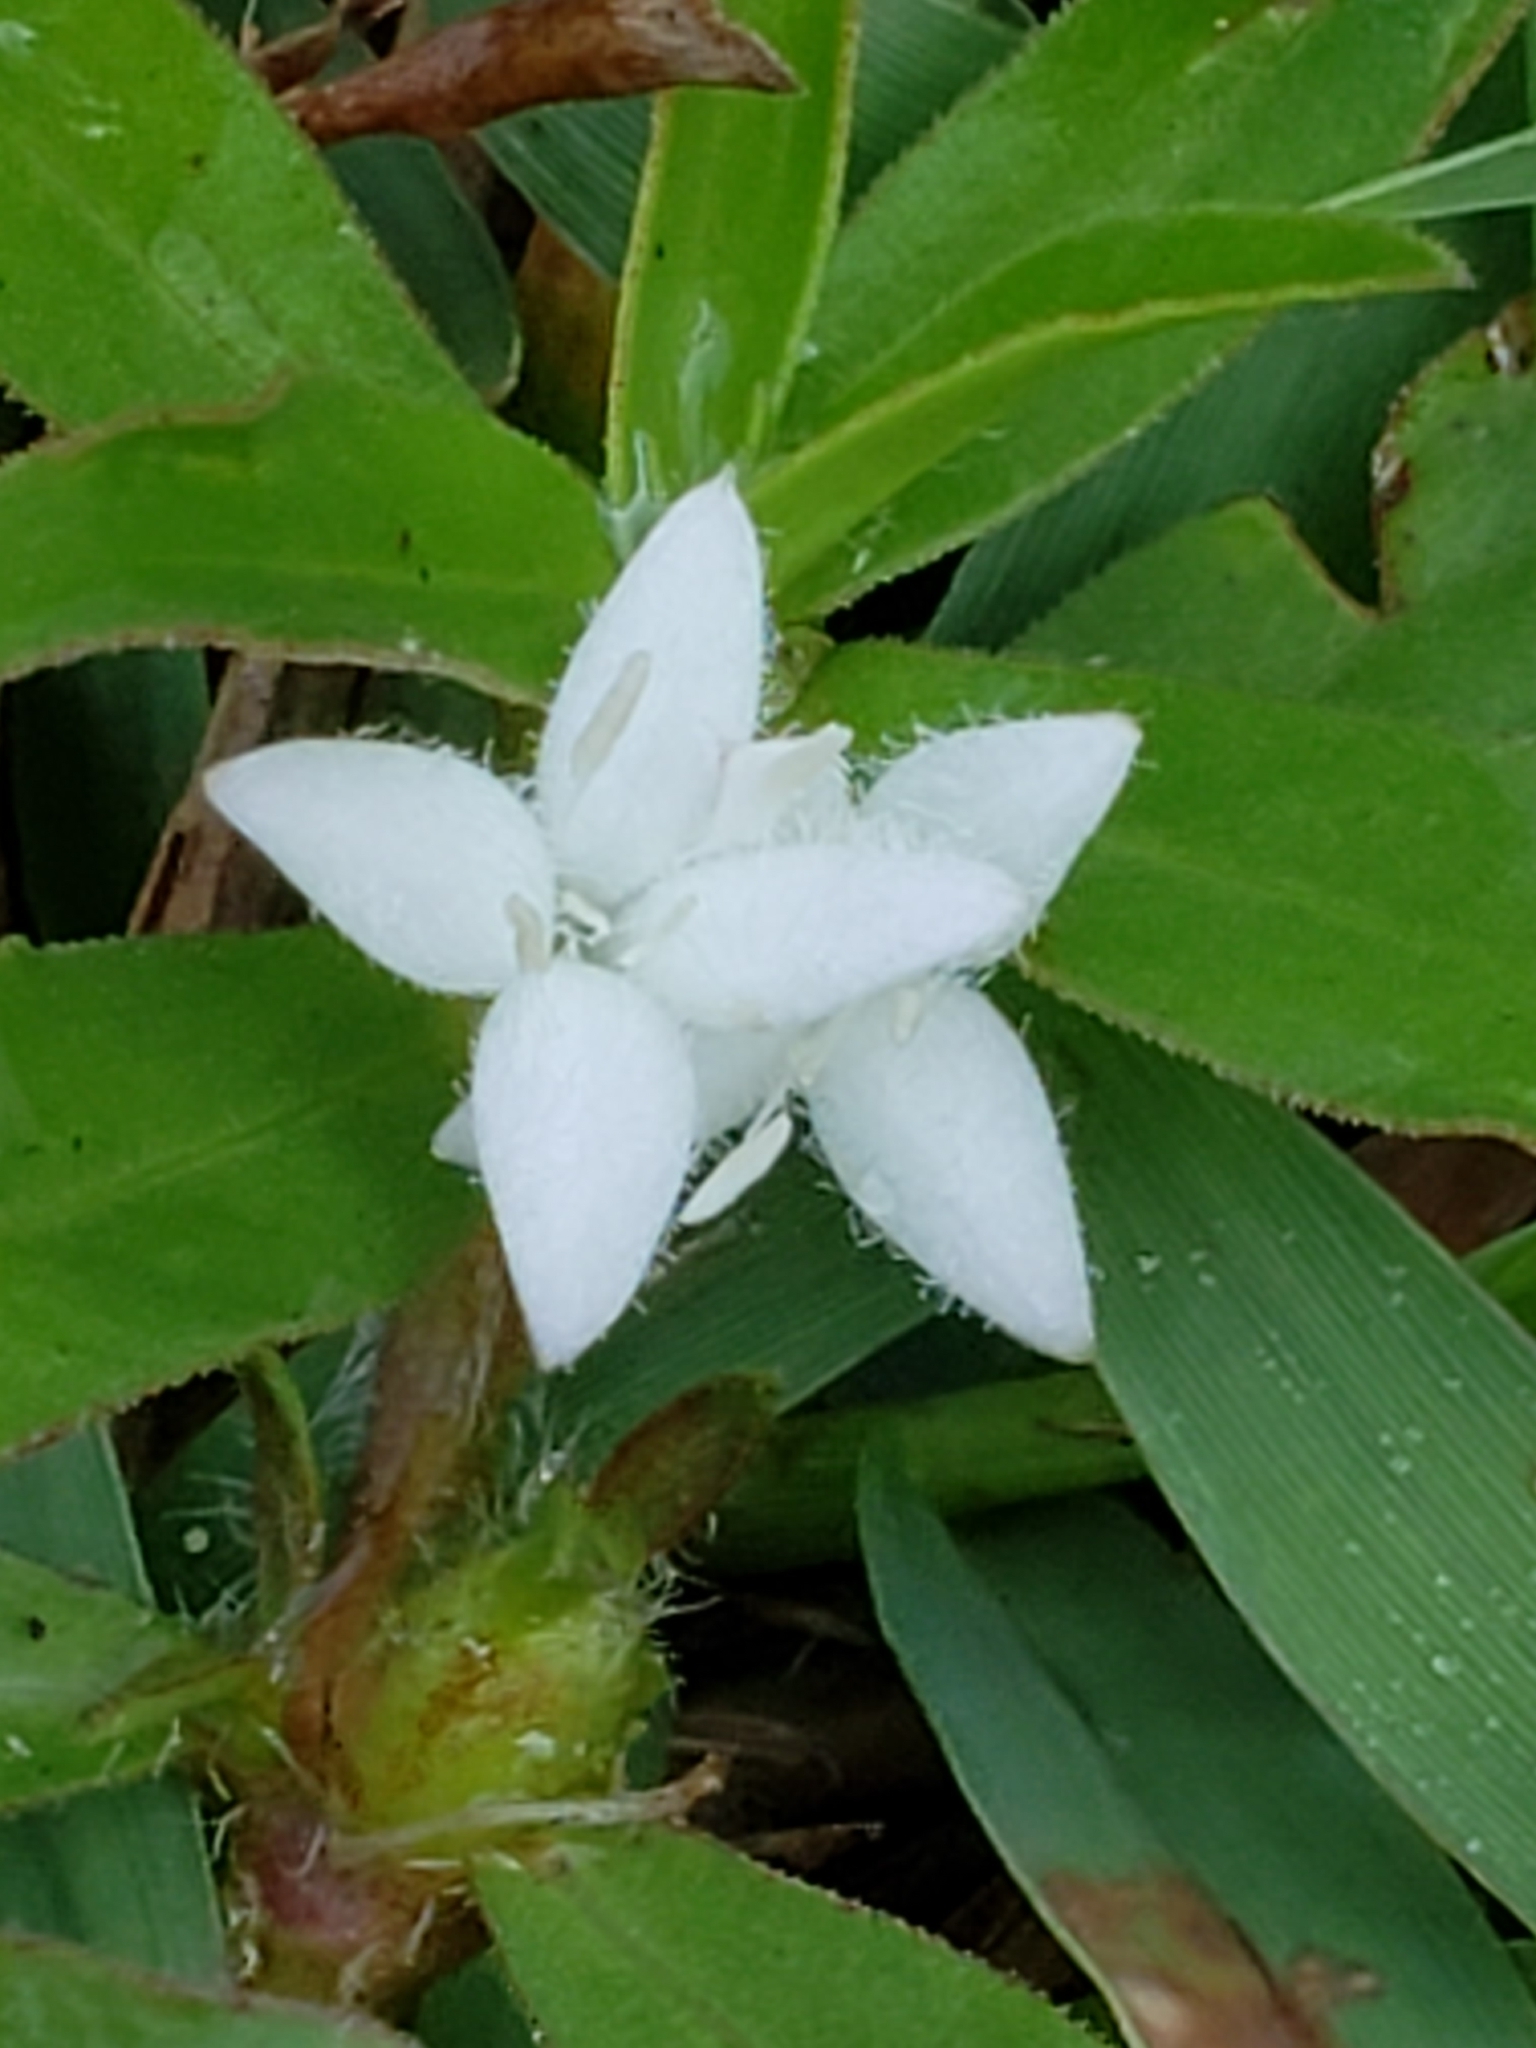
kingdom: Plantae
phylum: Tracheophyta
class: Magnoliopsida
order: Gentianales
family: Rubiaceae
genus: Diodia
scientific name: Diodia virginiana
